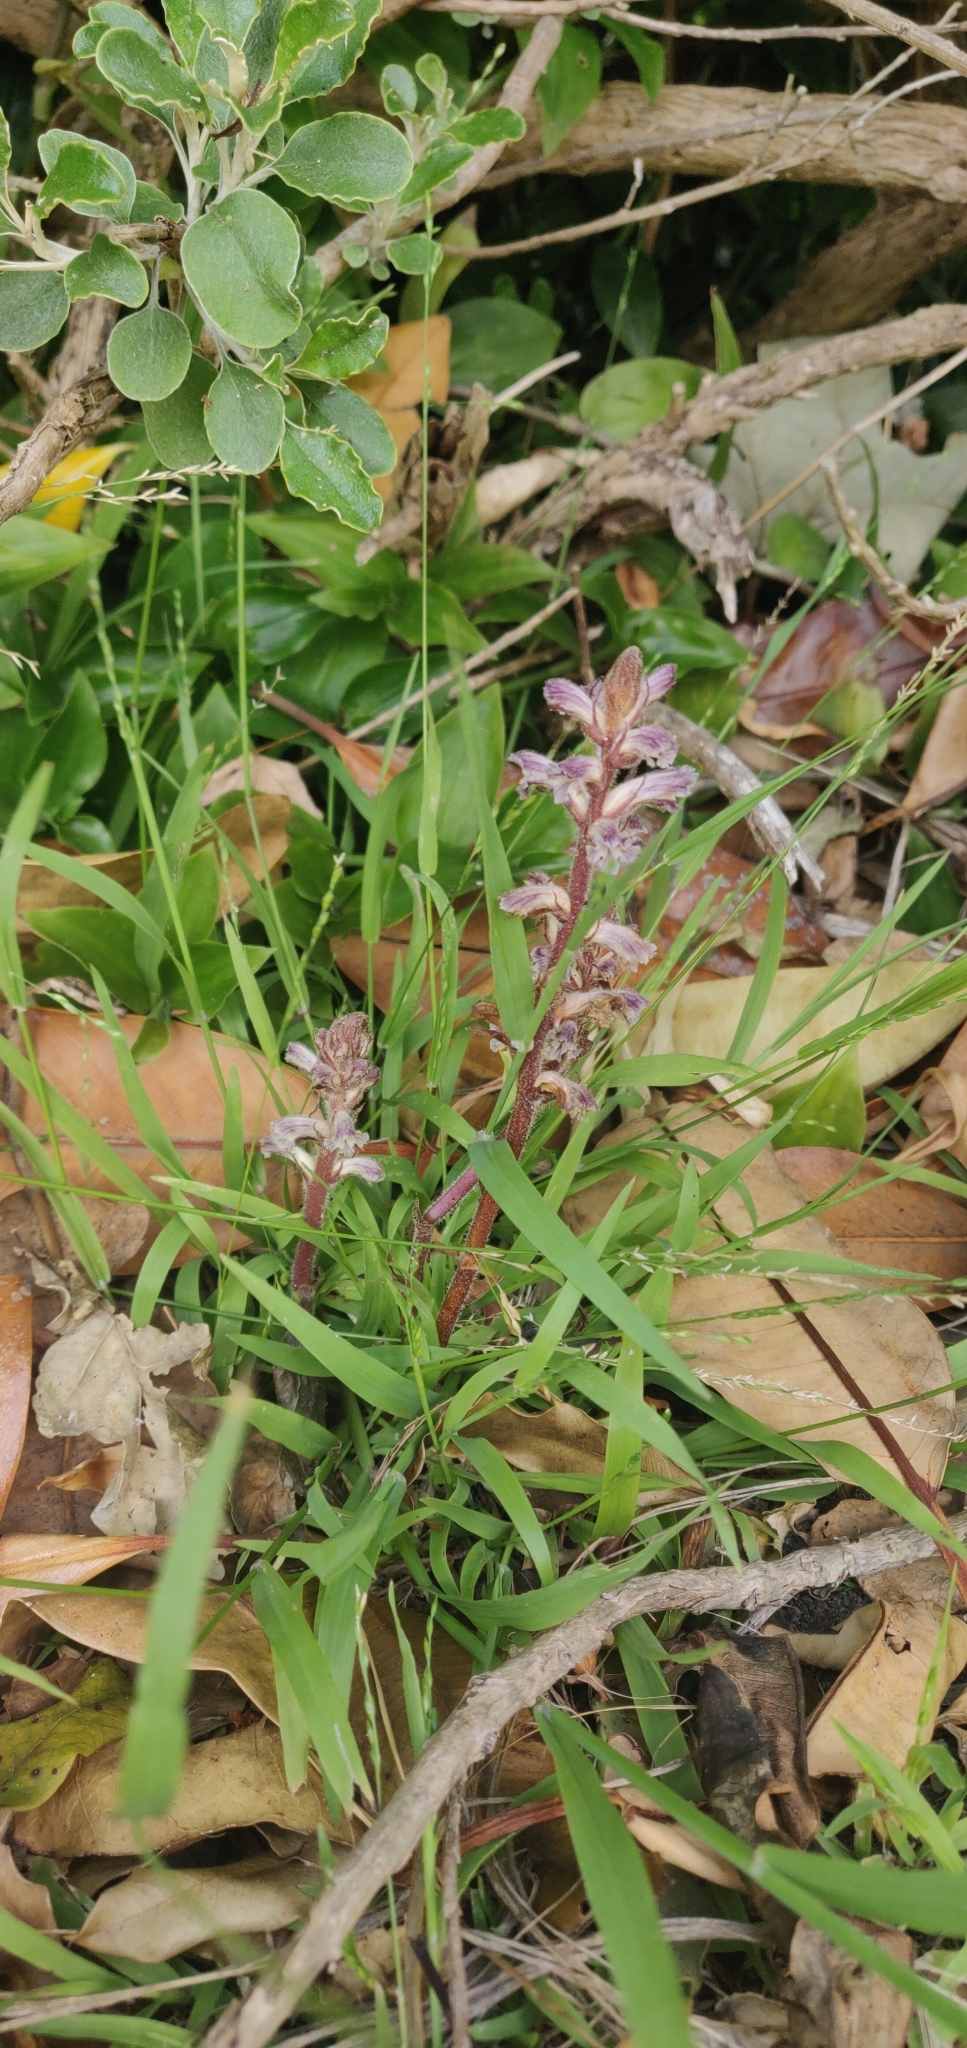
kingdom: Plantae
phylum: Tracheophyta
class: Magnoliopsida
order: Lamiales
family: Orobanchaceae
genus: Orobanche
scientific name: Orobanche minor
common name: Common broomrape
